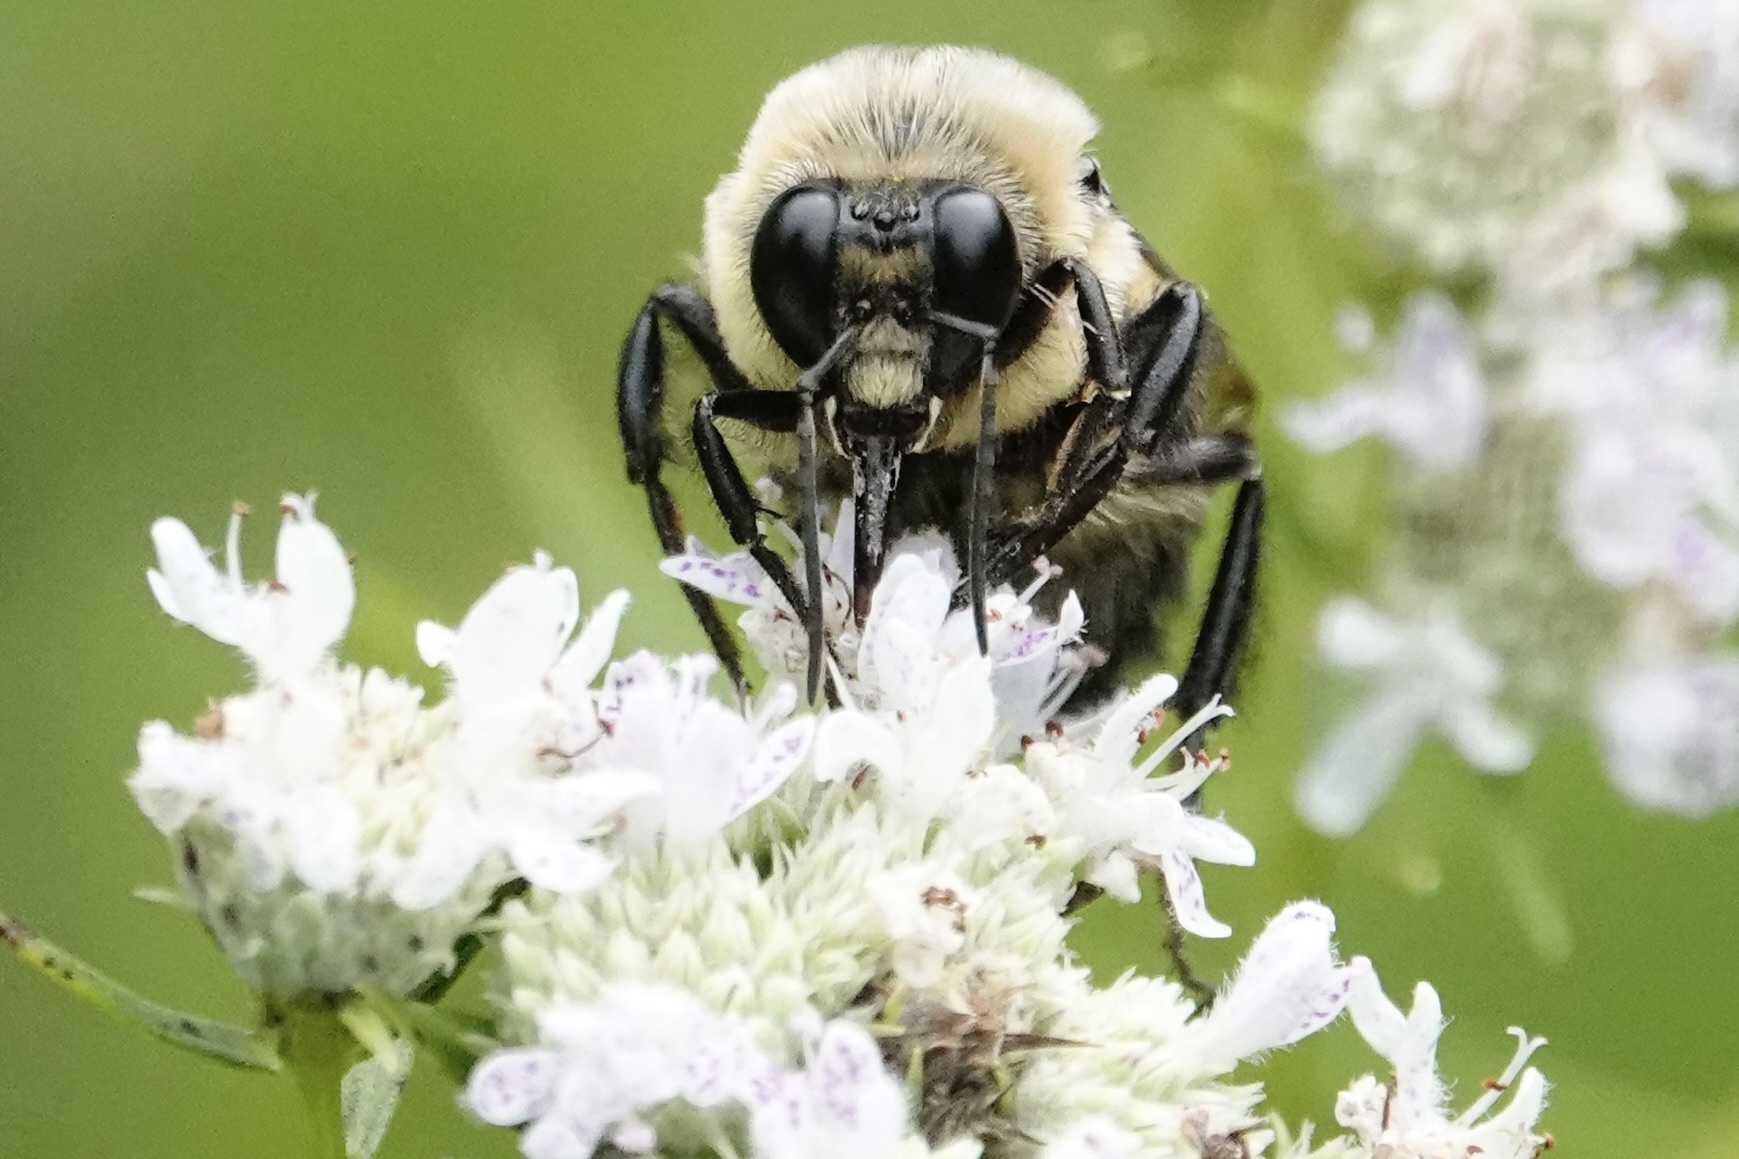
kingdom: Animalia
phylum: Arthropoda
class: Insecta
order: Hymenoptera
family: Apidae
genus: Bombus
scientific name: Bombus griseocollis
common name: Brown-belted bumble bee
